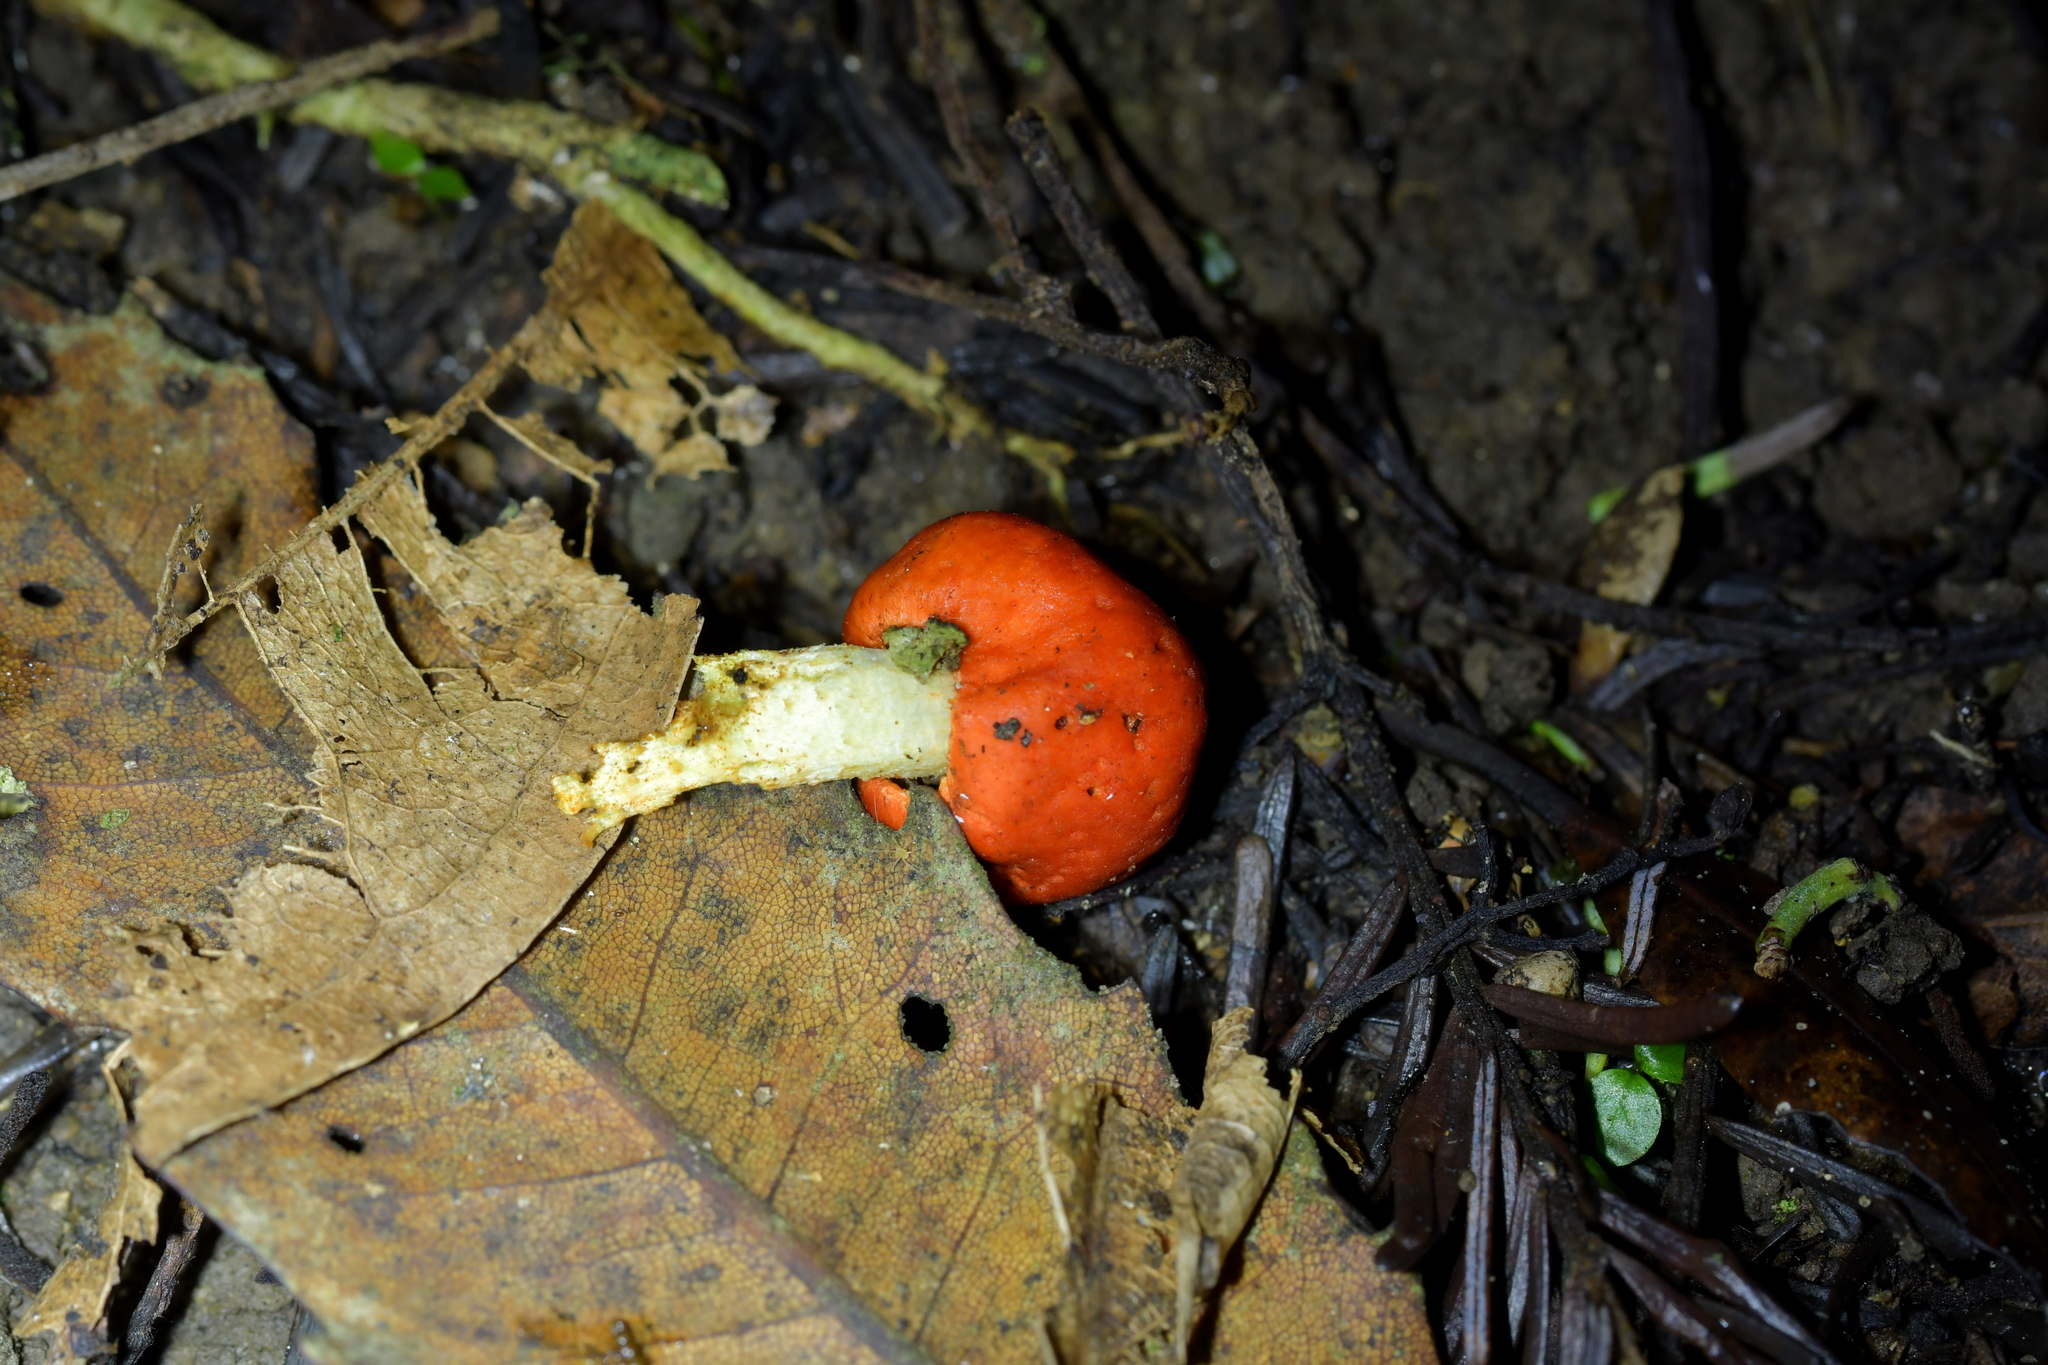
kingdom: Fungi
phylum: Basidiomycota
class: Agaricomycetes
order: Agaricales
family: Strophariaceae
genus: Leratiomyces
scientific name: Leratiomyces erythrocephalus
